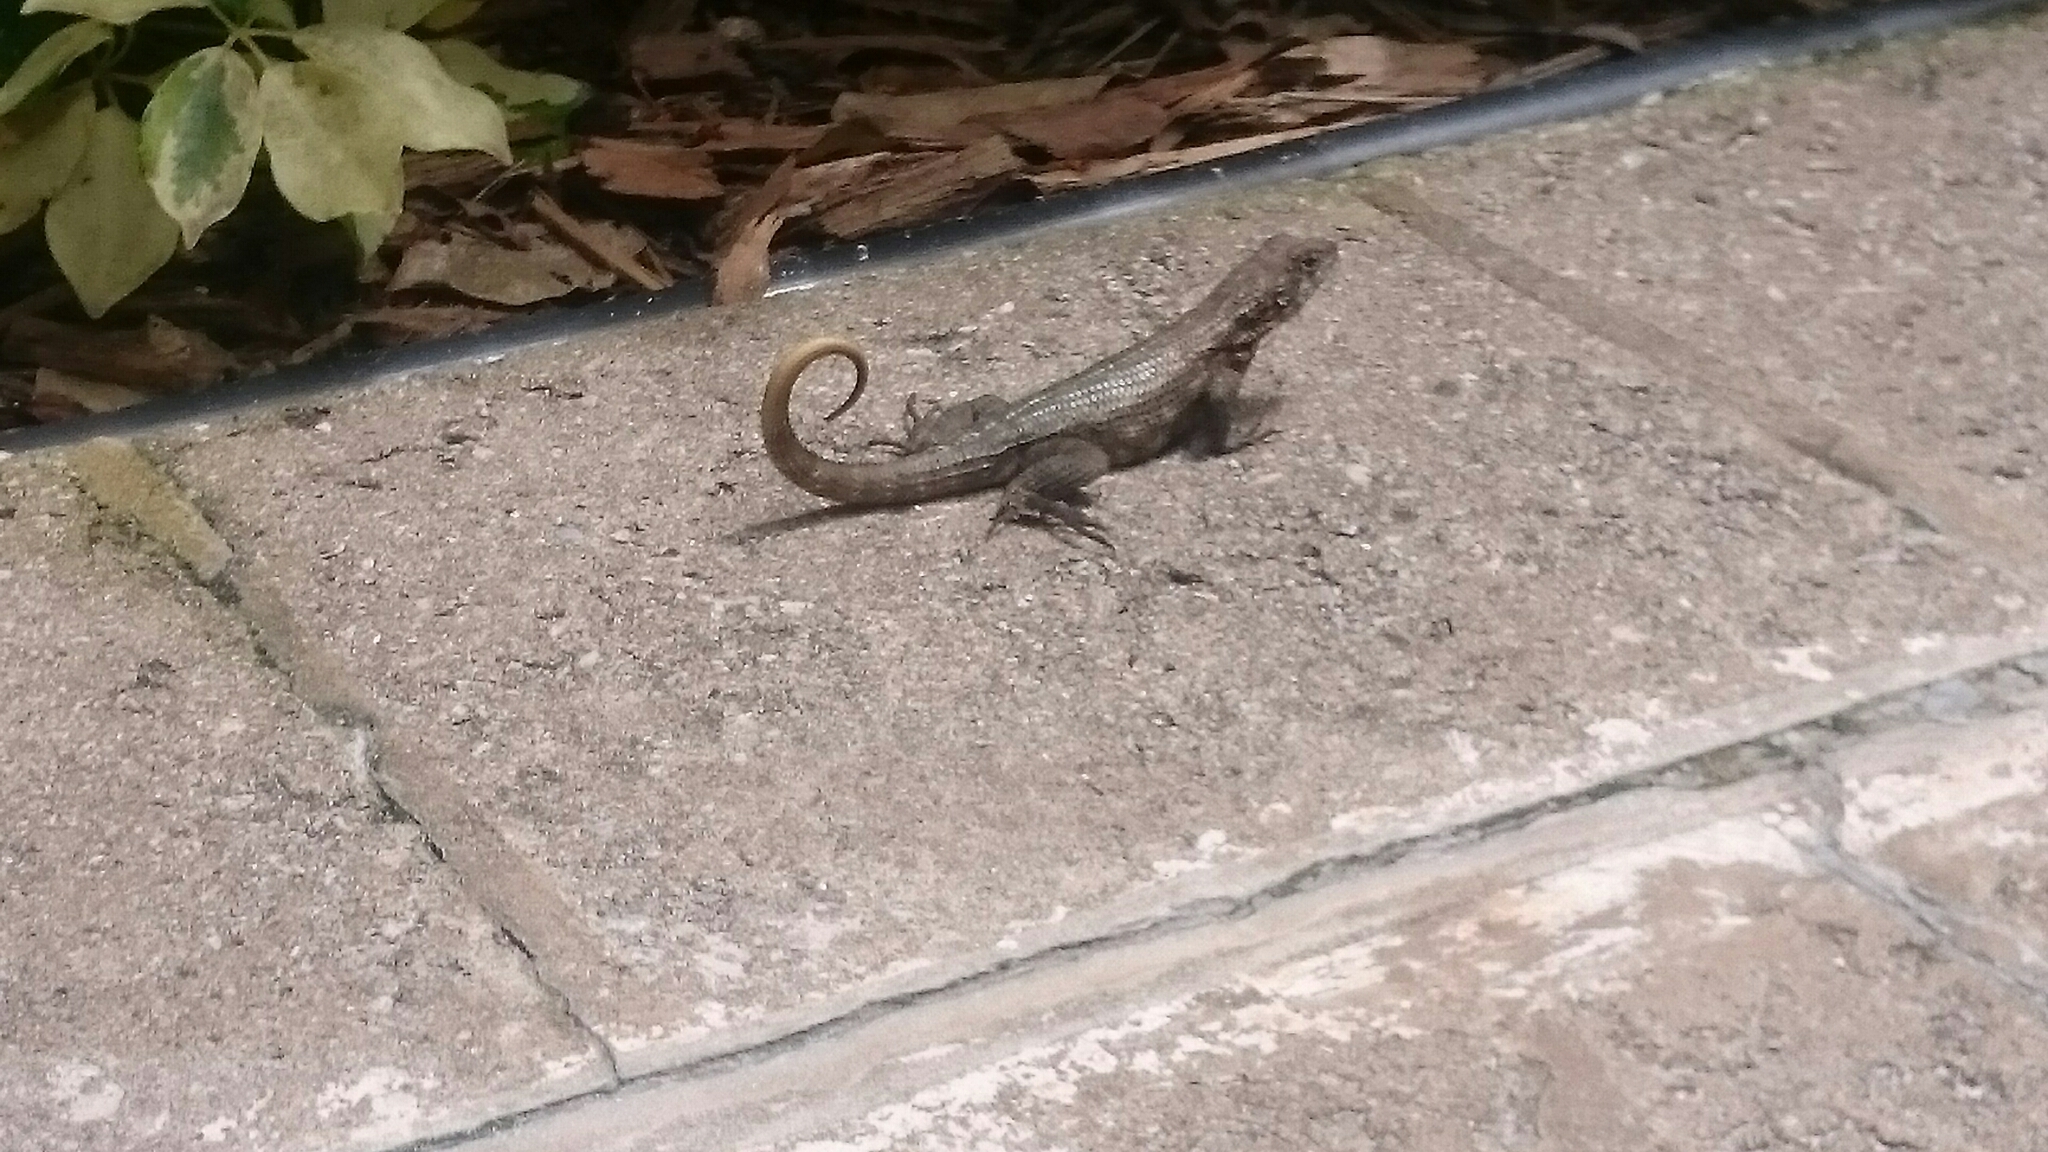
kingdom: Animalia
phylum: Chordata
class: Squamata
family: Leiocephalidae
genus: Leiocephalus
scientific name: Leiocephalus varius
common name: Cayman curlytail
